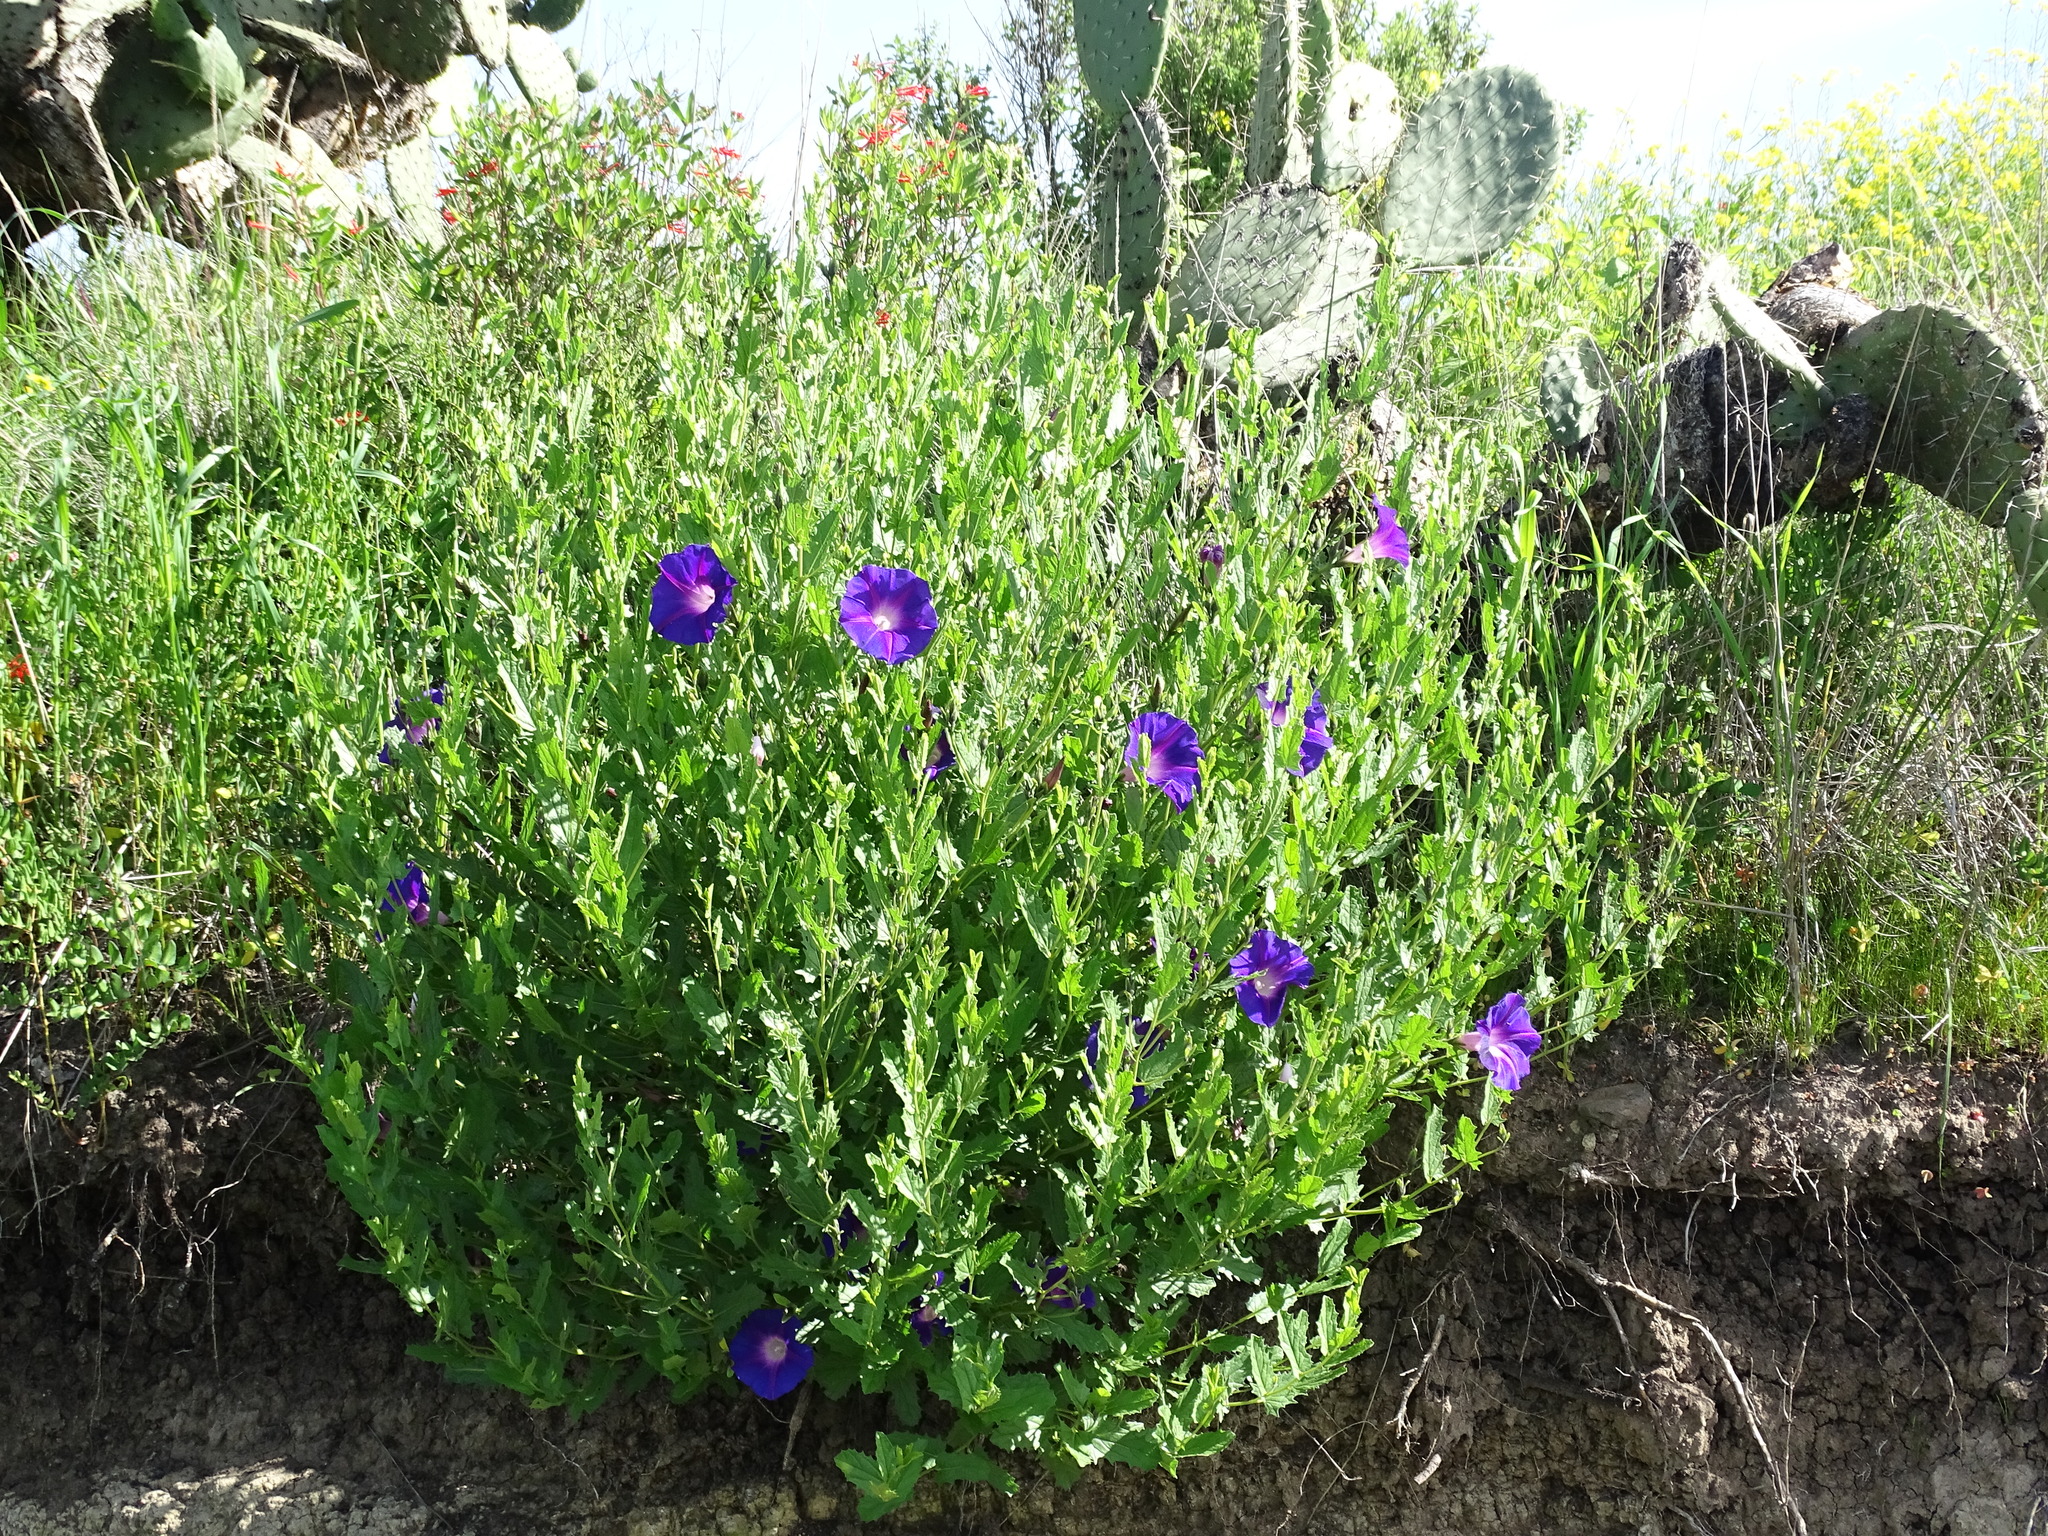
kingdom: Plantae
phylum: Tracheophyta
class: Magnoliopsida
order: Solanales
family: Convolvulaceae
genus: Ipomoea
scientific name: Ipomoea stans
